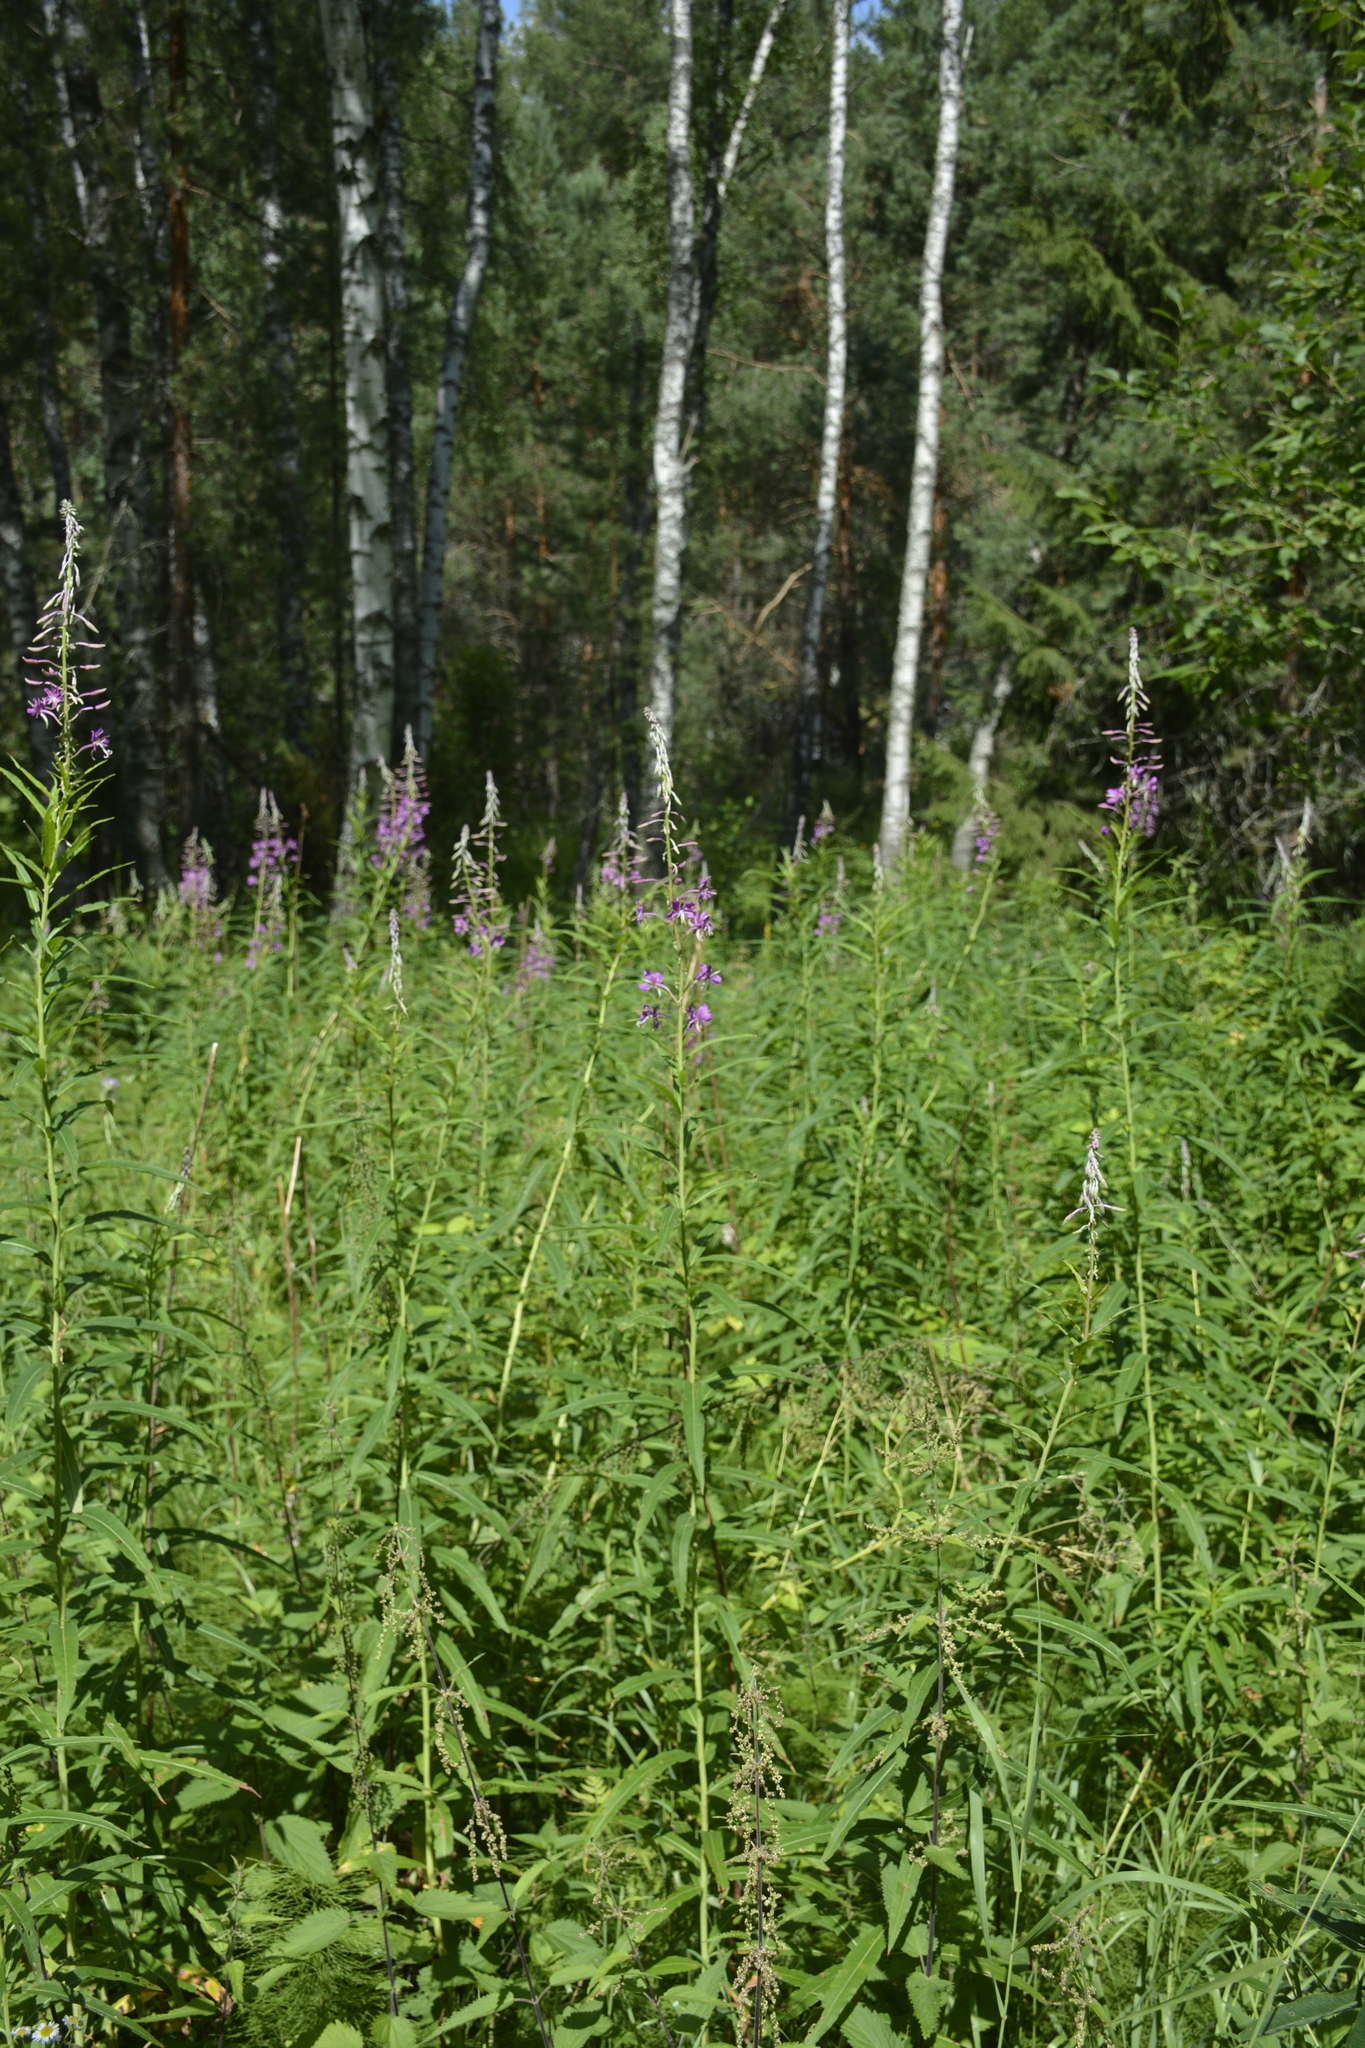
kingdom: Plantae
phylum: Tracheophyta
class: Magnoliopsida
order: Myrtales
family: Onagraceae
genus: Chamaenerion
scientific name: Chamaenerion angustifolium
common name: Fireweed
